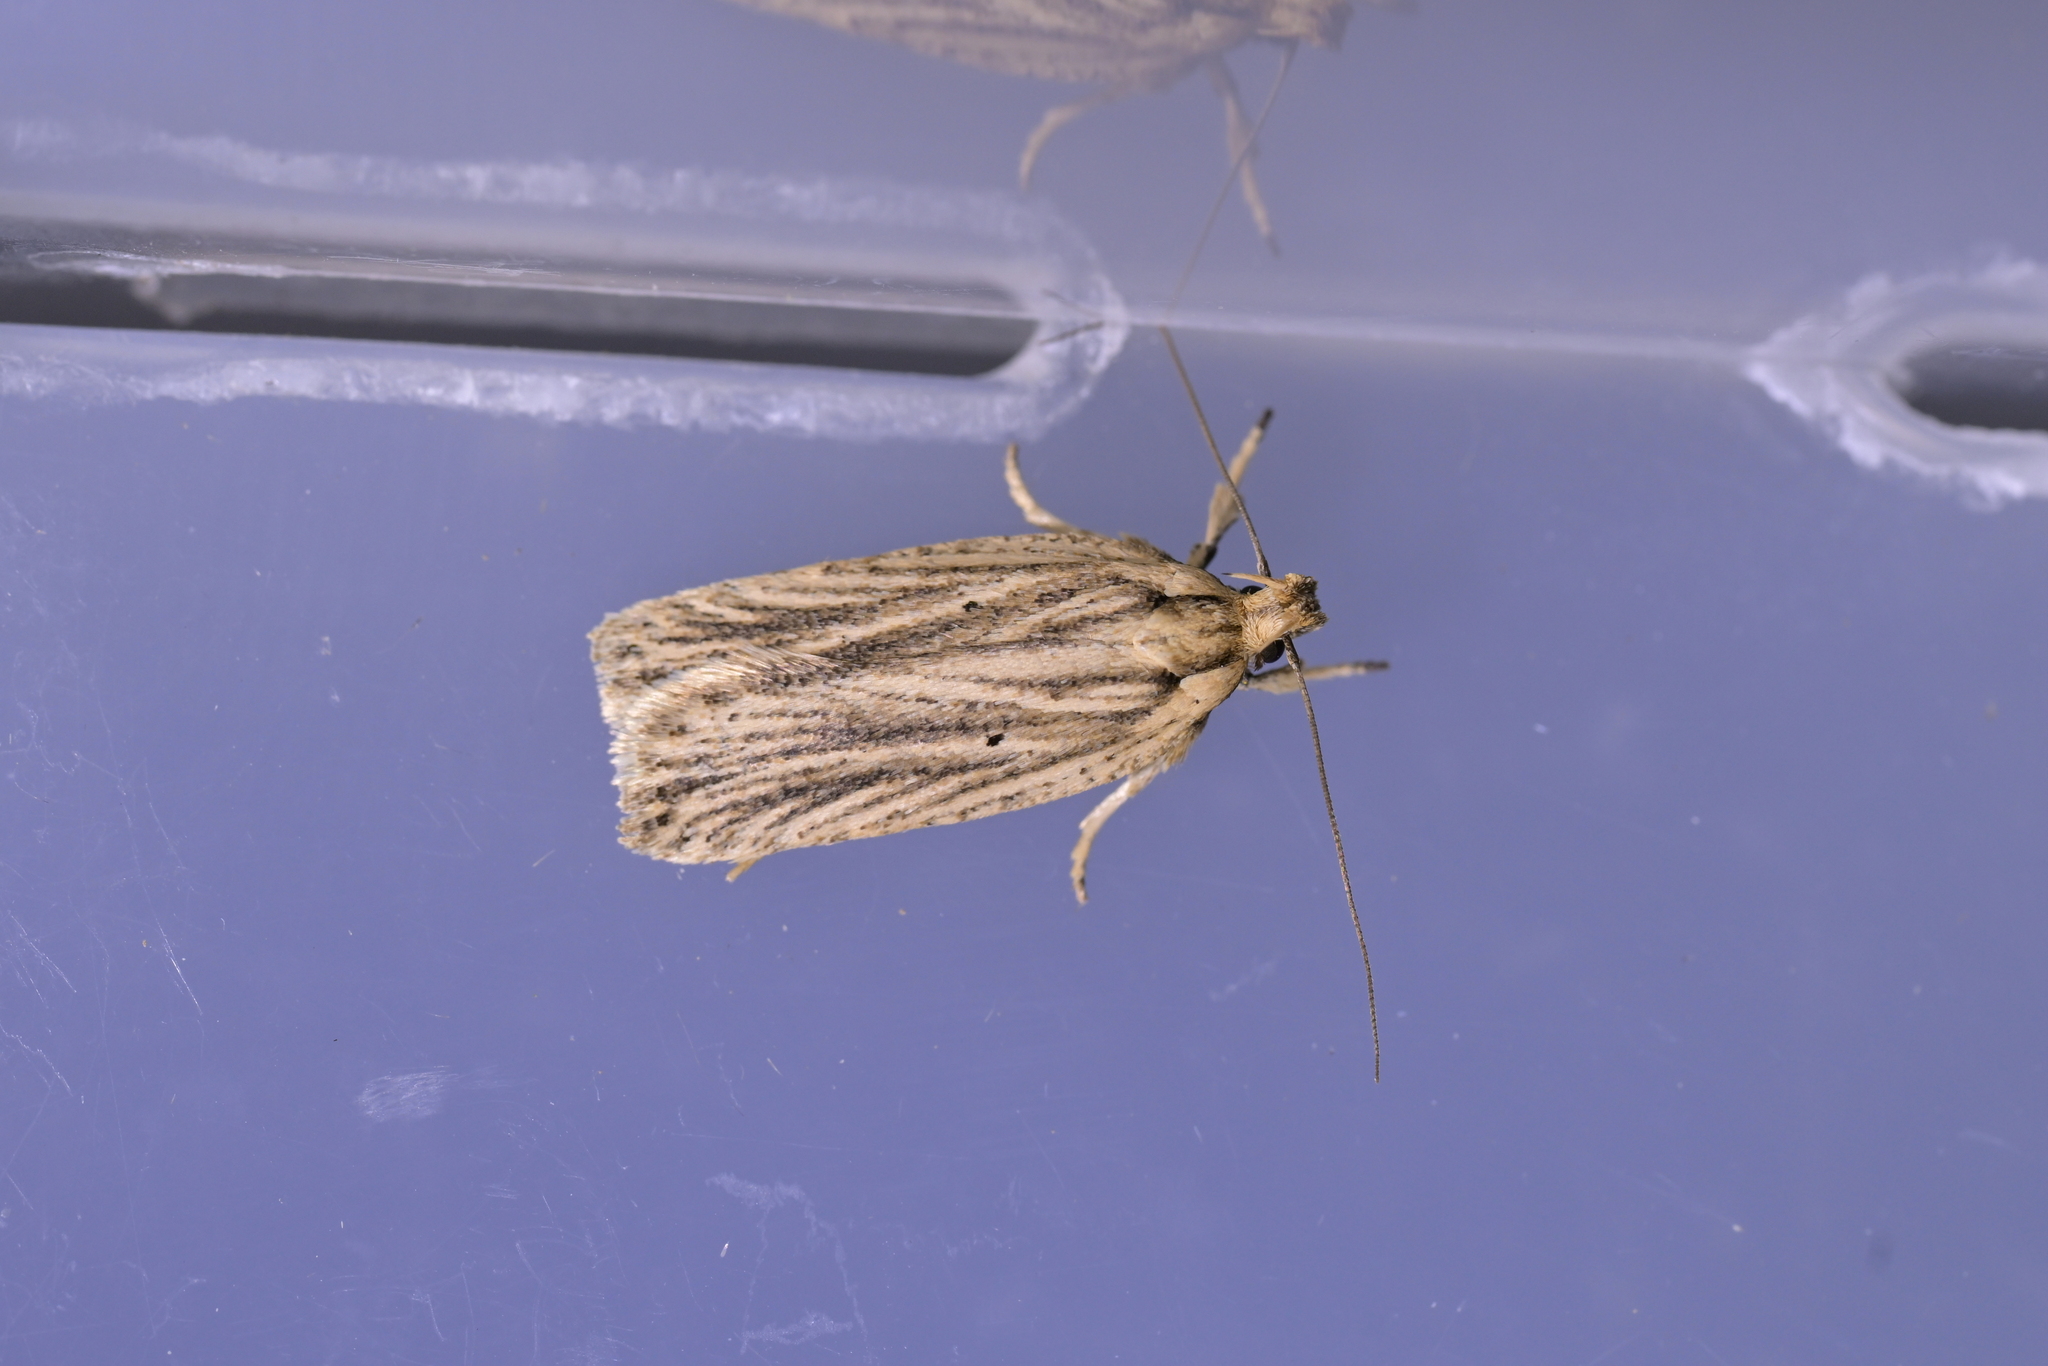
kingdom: Animalia
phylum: Arthropoda
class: Insecta
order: Lepidoptera
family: Depressariidae
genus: Agonopterix
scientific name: Agonopterix
